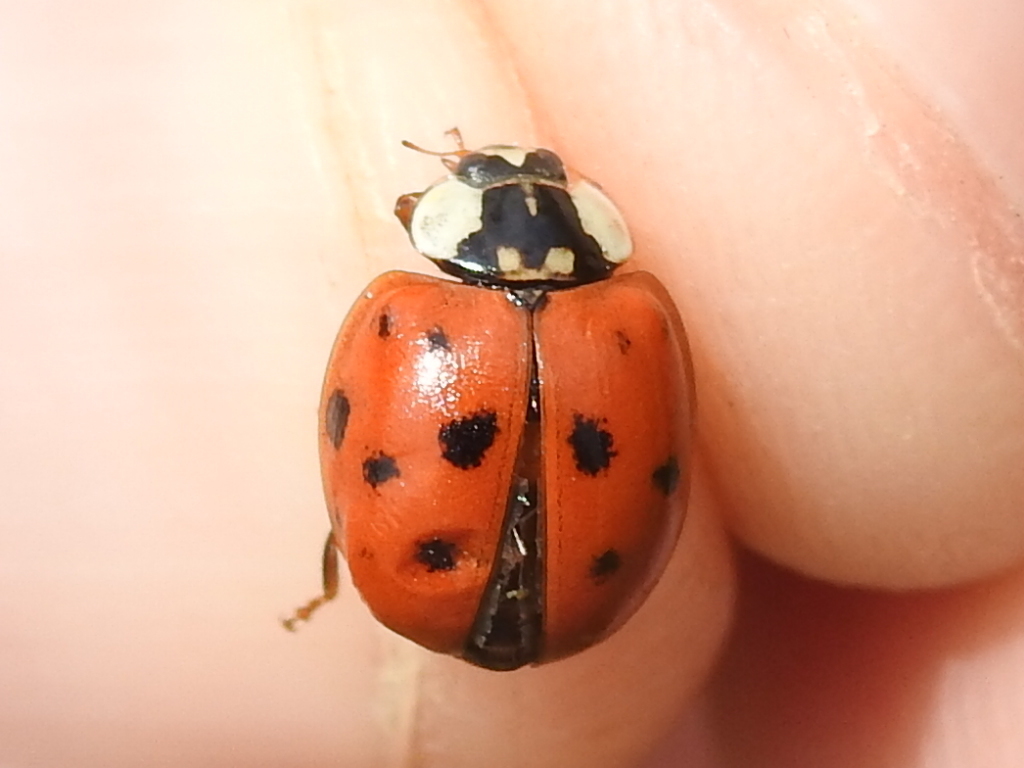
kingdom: Animalia
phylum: Arthropoda
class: Insecta
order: Coleoptera
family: Coccinellidae
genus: Harmonia
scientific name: Harmonia axyridis
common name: Harlequin ladybird
